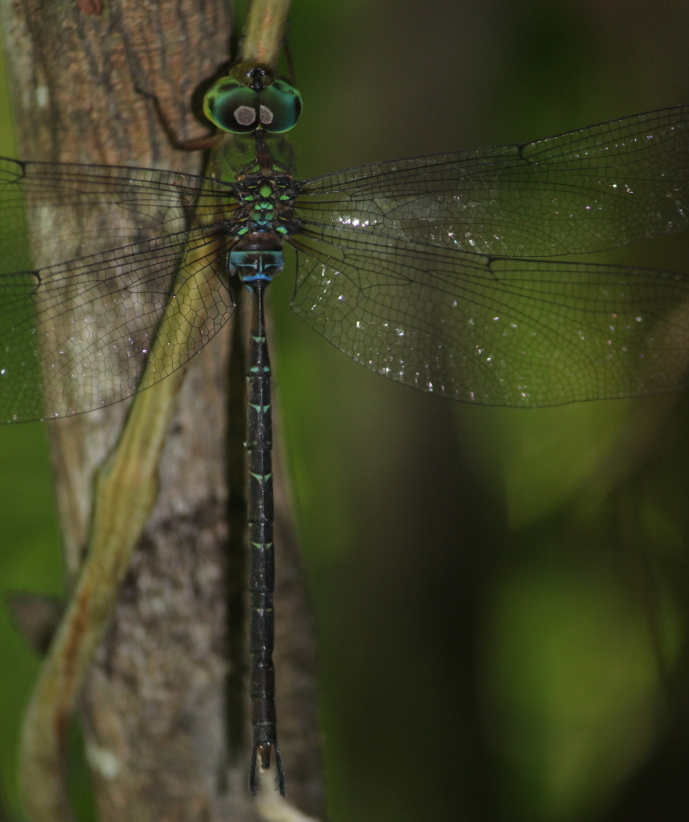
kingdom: Animalia
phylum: Arthropoda
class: Insecta
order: Odonata
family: Aeshnidae
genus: Gynacantha
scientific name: Gynacantha usambarica
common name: Eastern duskhawker
